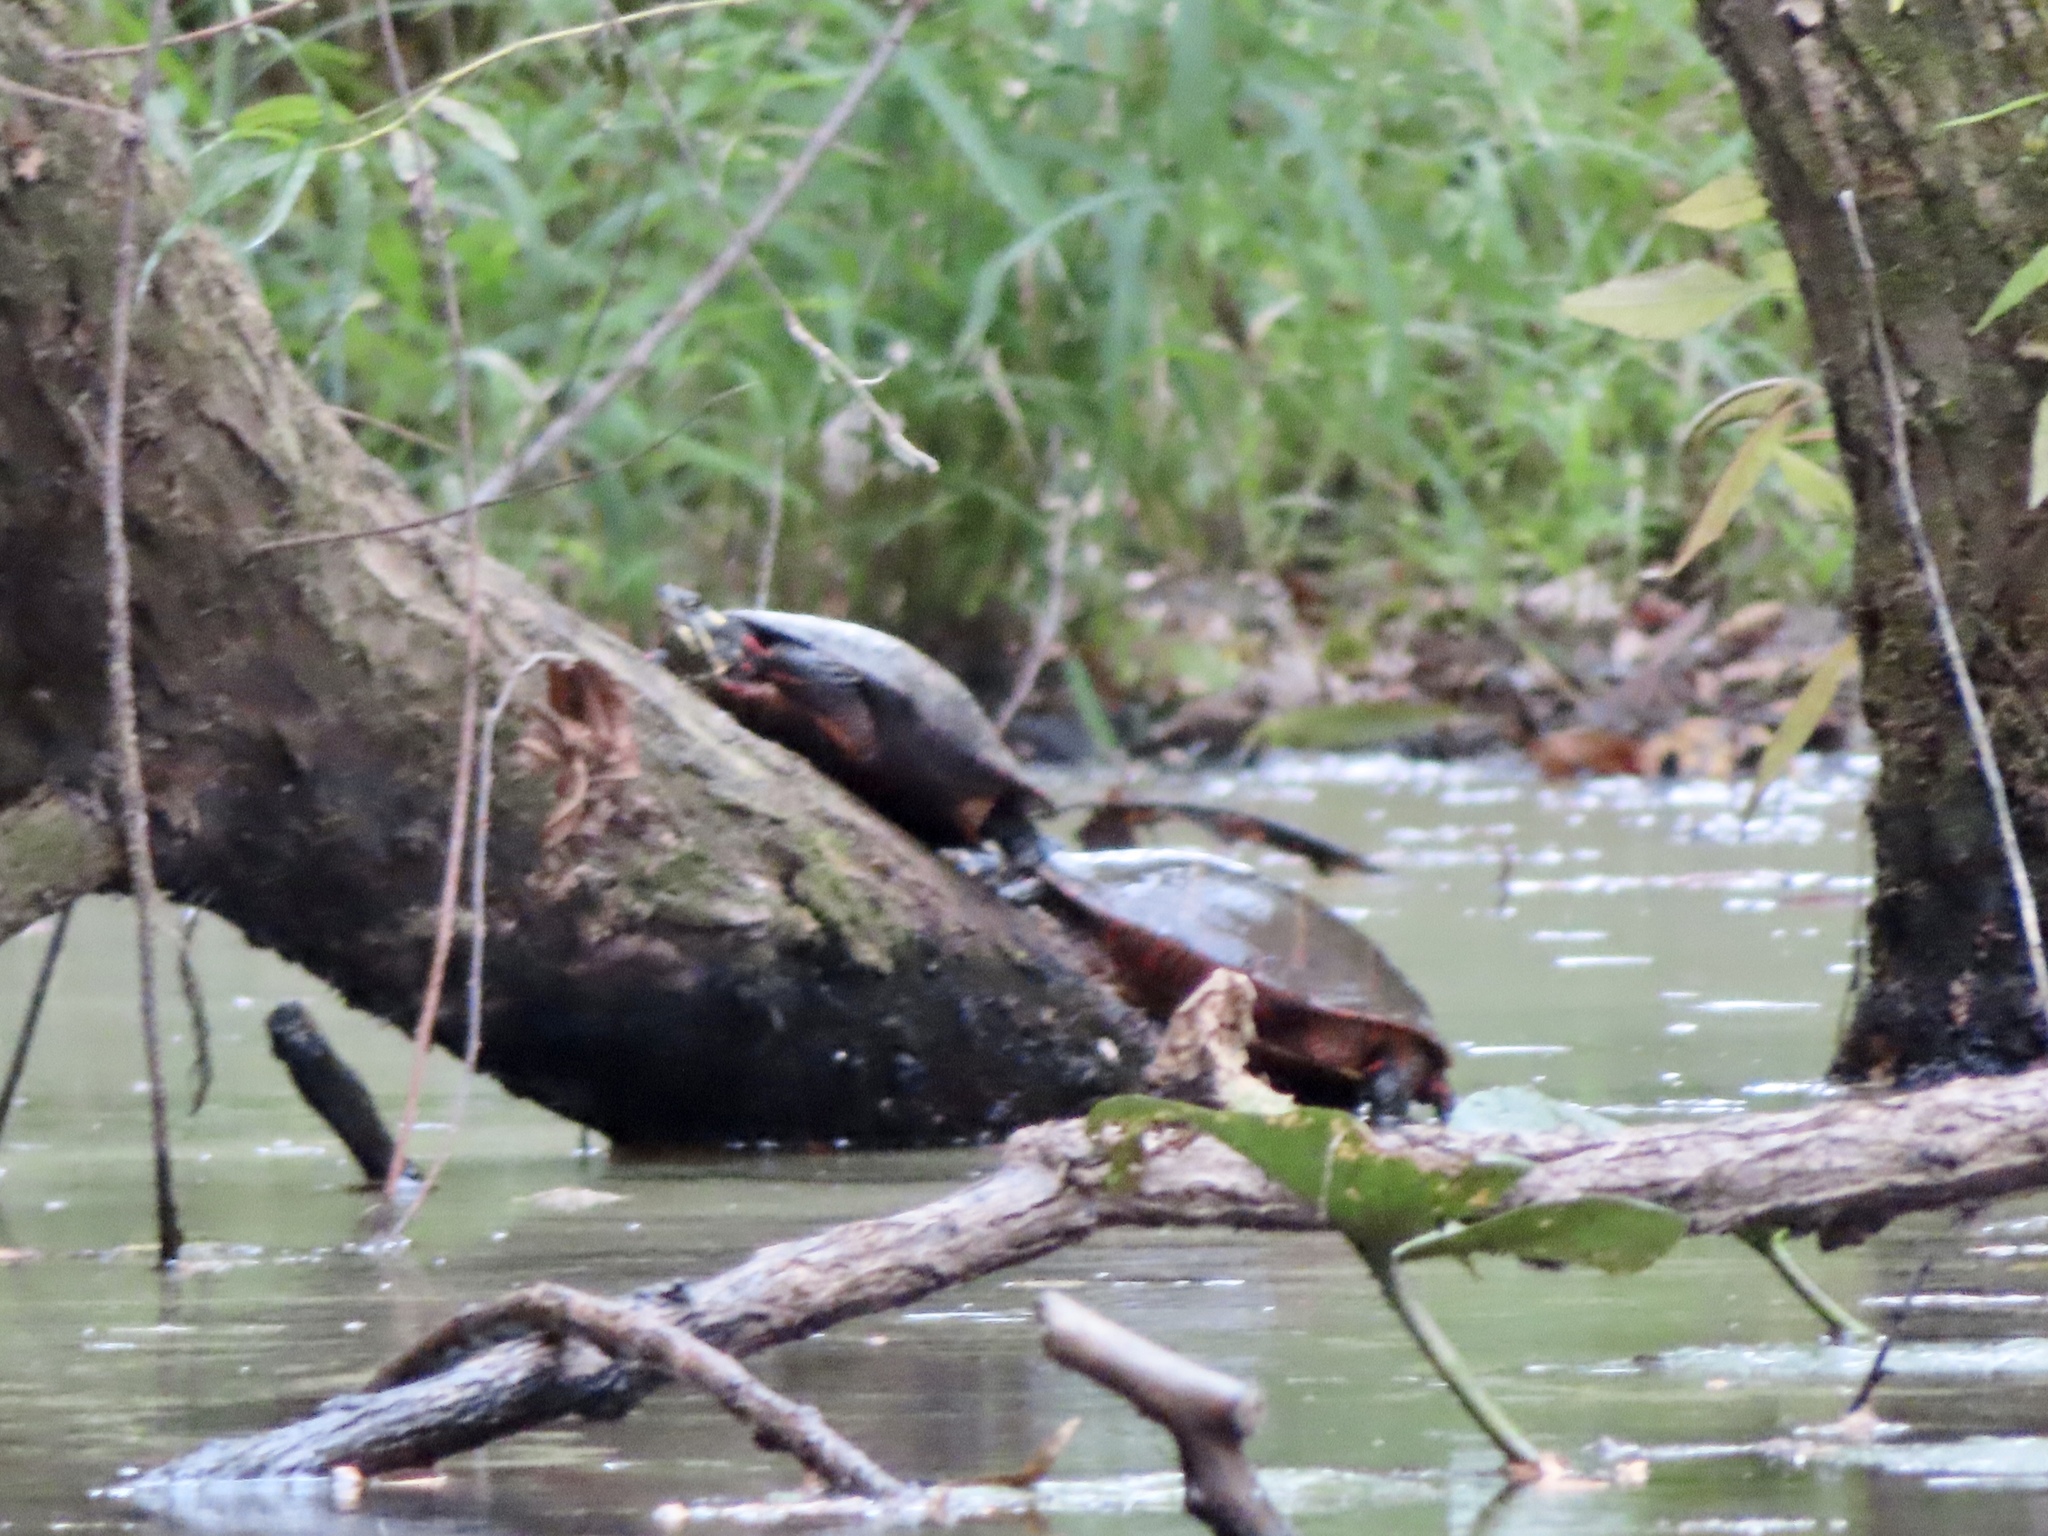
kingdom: Animalia
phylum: Chordata
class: Testudines
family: Emydidae
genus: Chrysemys
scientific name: Chrysemys picta
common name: Painted turtle
